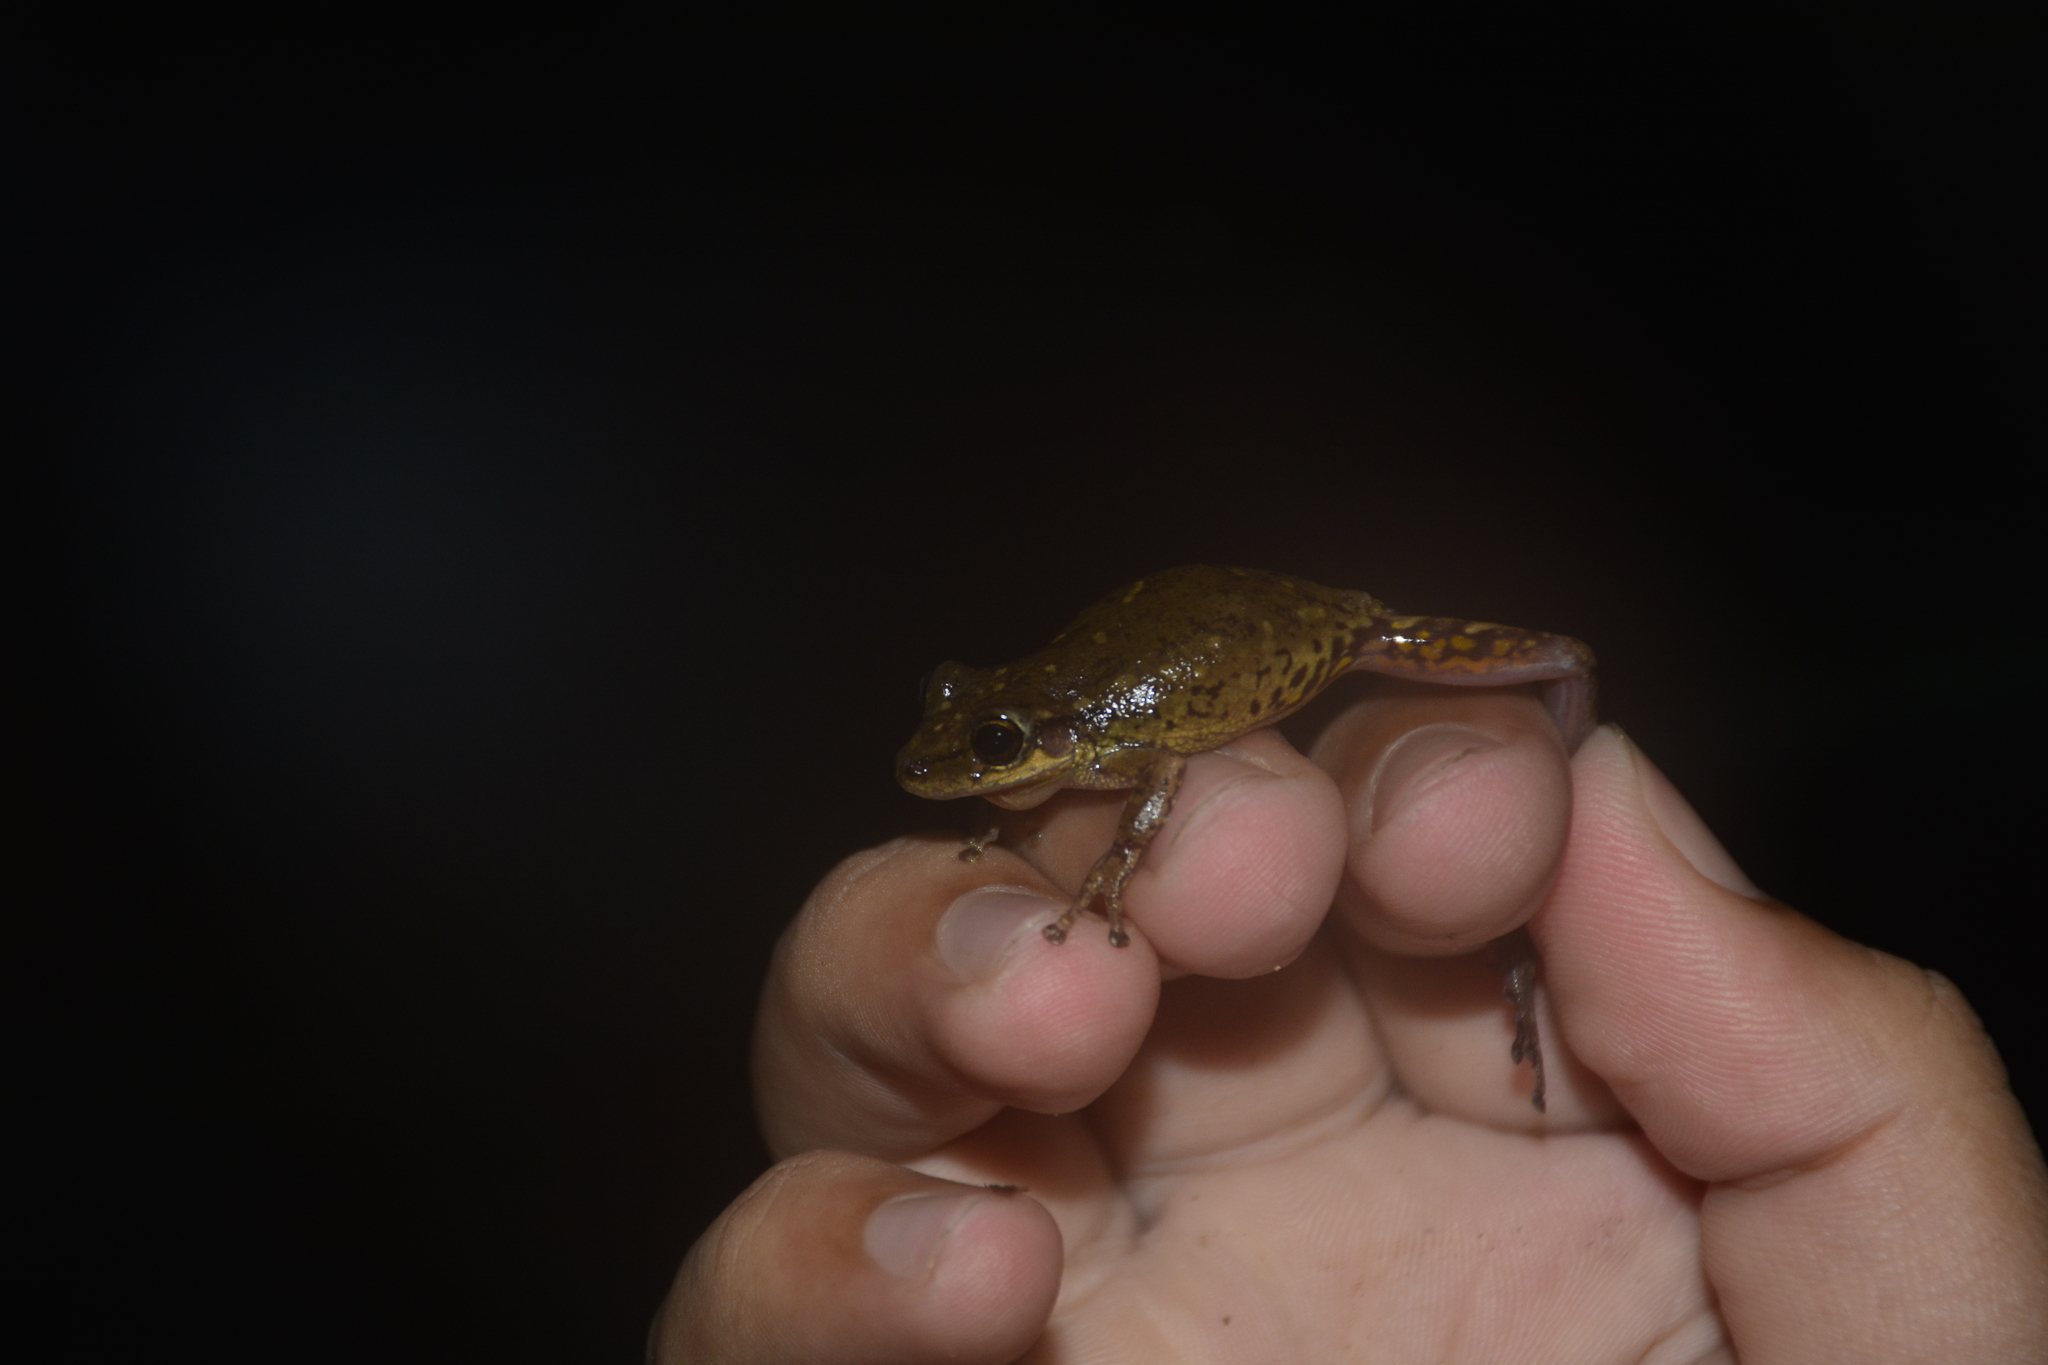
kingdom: Animalia
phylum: Chordata
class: Amphibia
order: Anura
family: Hylidae
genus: Scinax
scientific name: Scinax nasicus
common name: Lesser snouted treefrog
